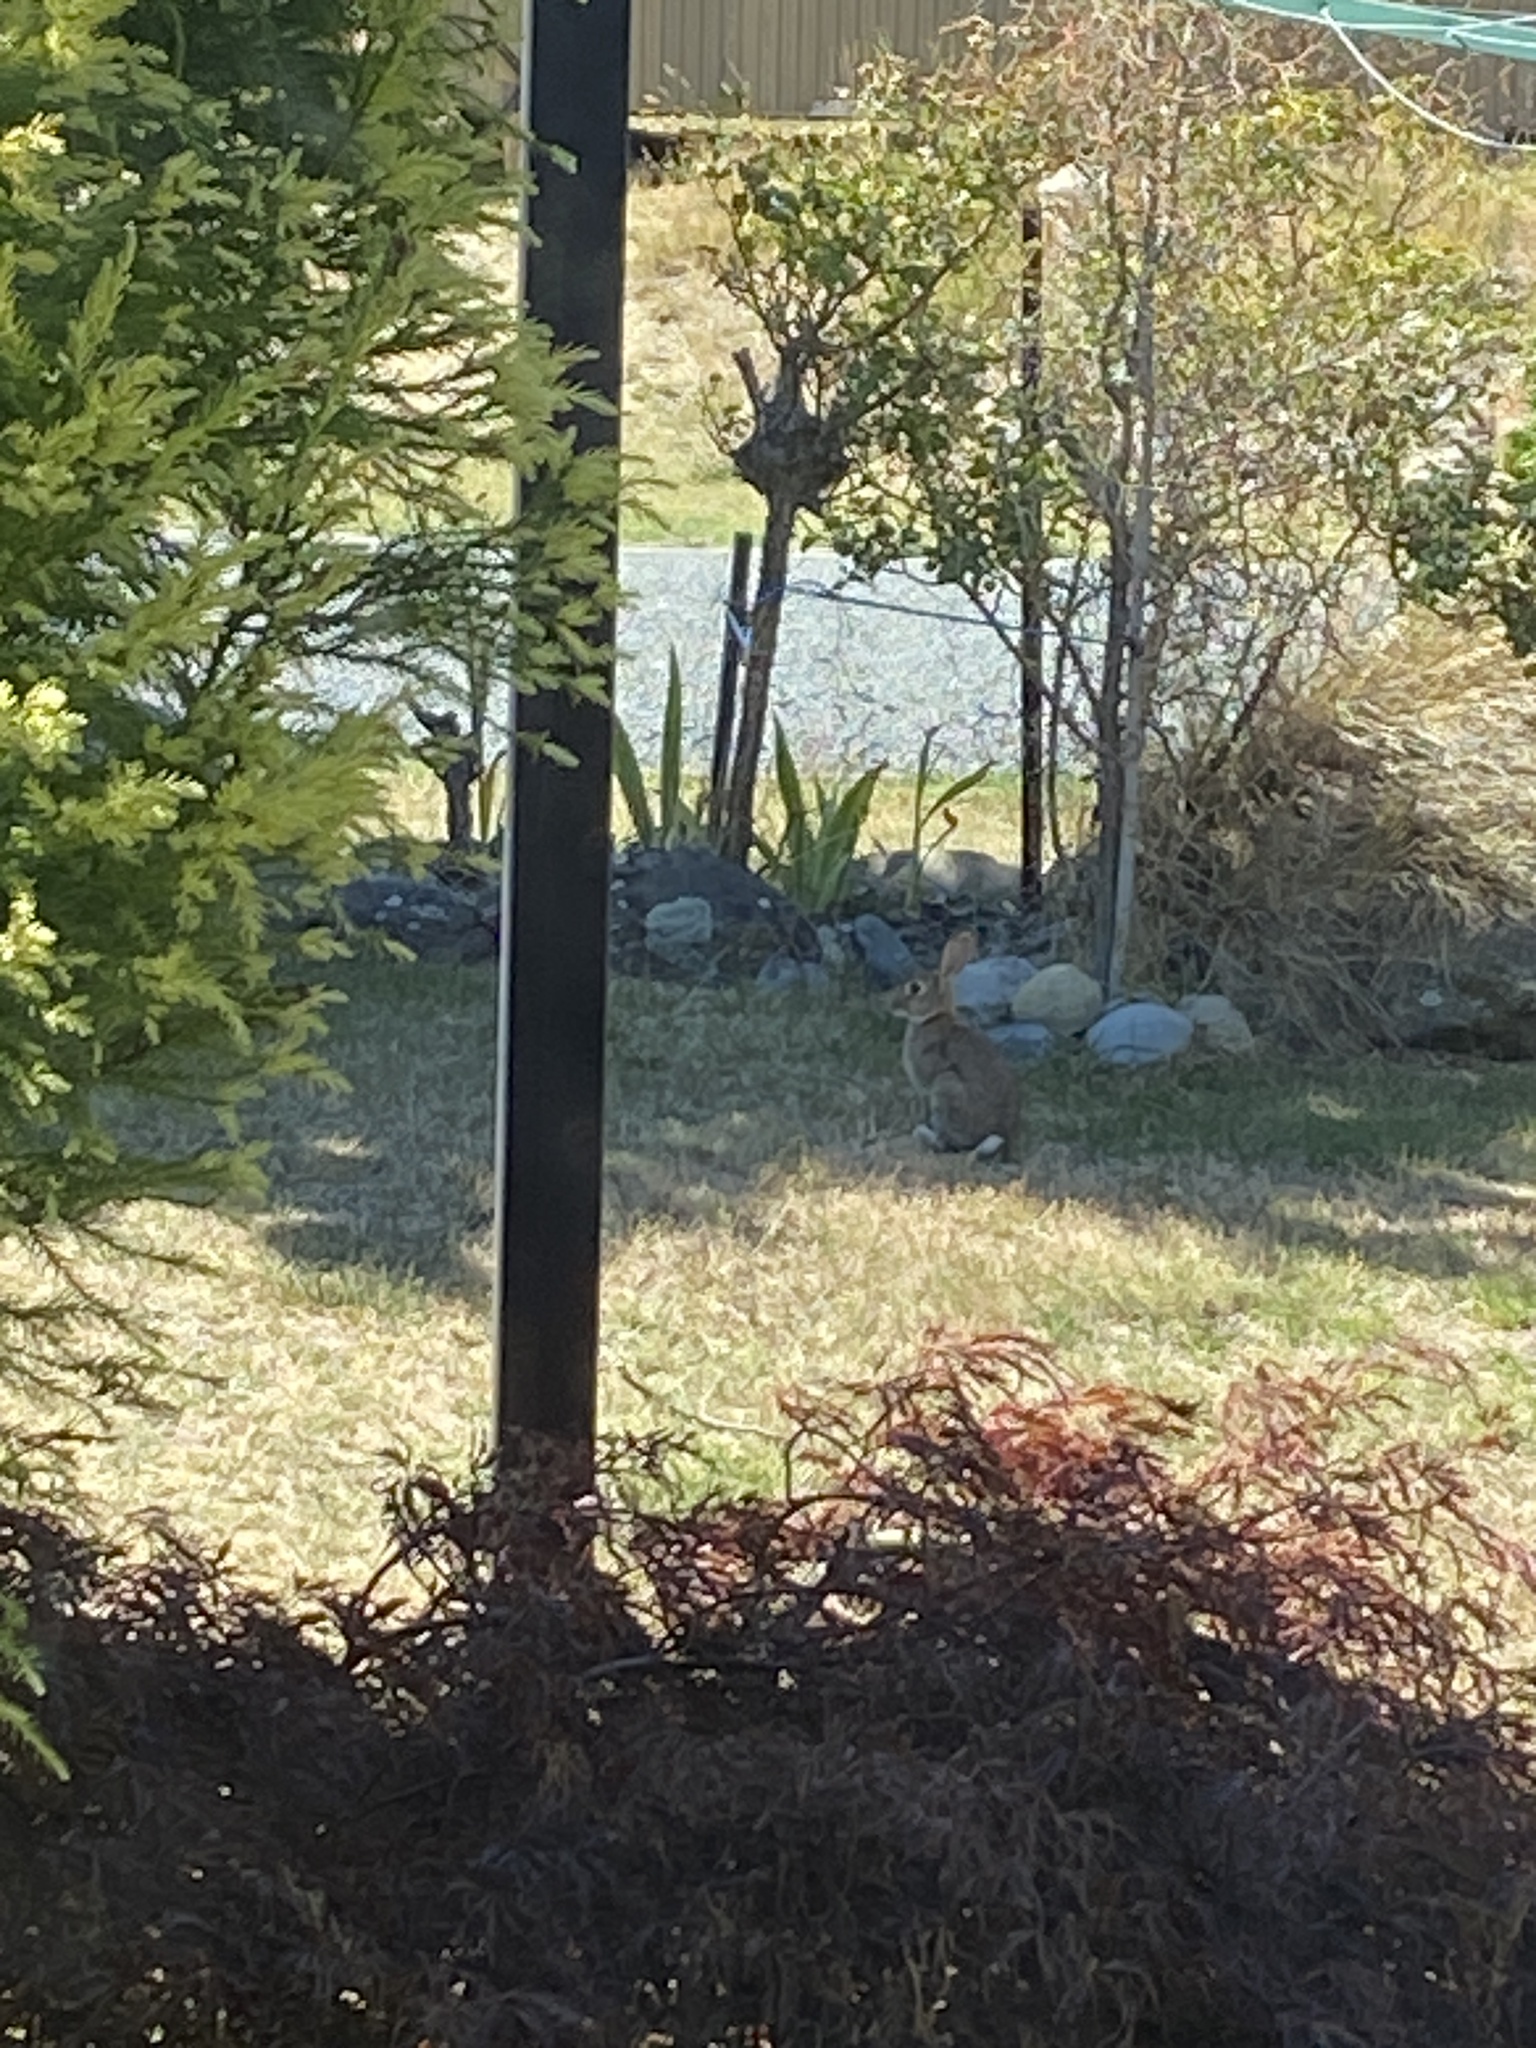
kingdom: Animalia
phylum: Chordata
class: Mammalia
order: Lagomorpha
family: Leporidae
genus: Oryctolagus
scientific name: Oryctolagus cuniculus
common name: European rabbit
